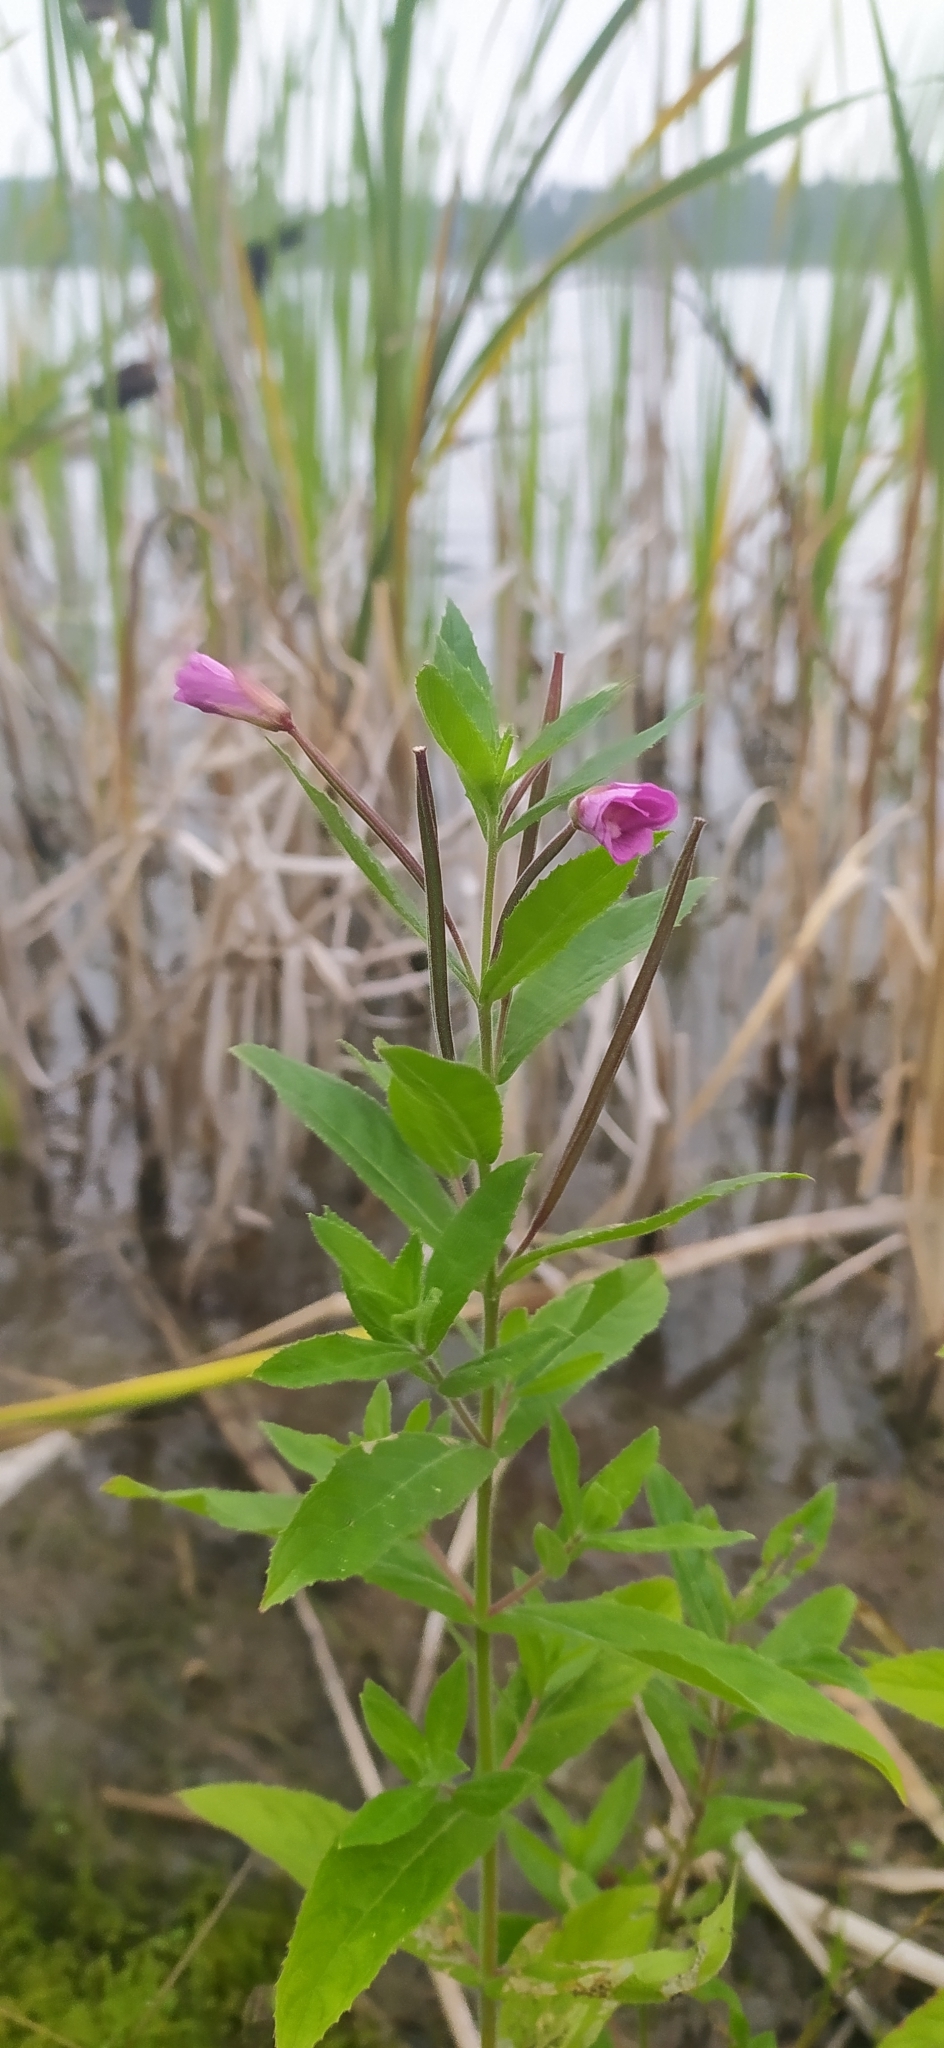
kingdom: Plantae
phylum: Tracheophyta
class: Magnoliopsida
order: Myrtales
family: Onagraceae
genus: Epilobium
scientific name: Epilobium hirsutum
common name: Great willowherb
